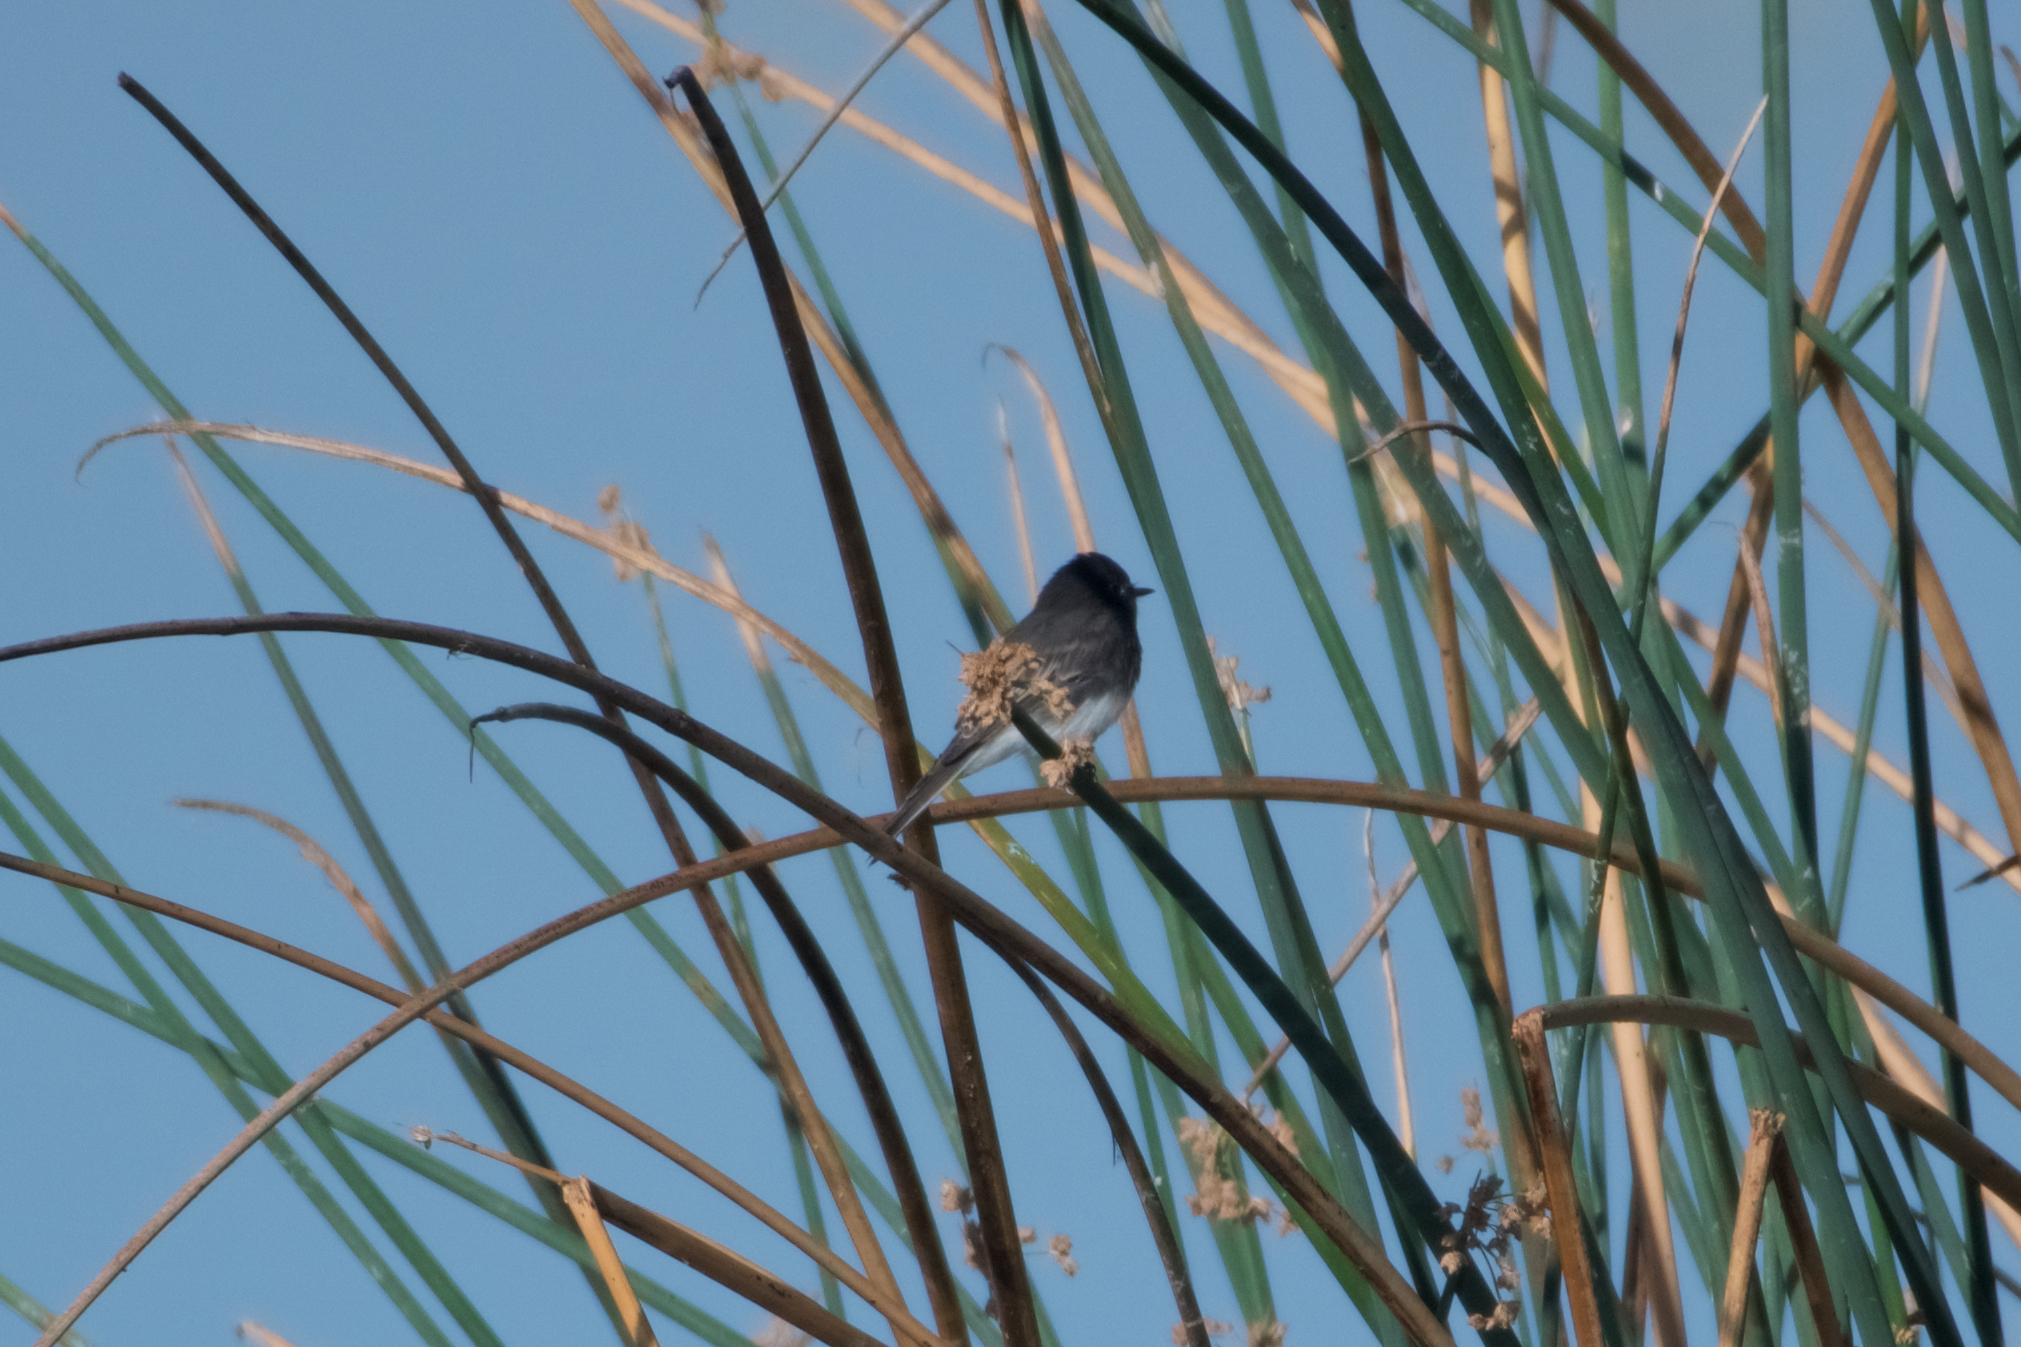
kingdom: Animalia
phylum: Chordata
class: Aves
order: Passeriformes
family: Tyrannidae
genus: Sayornis
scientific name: Sayornis nigricans
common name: Black phoebe
